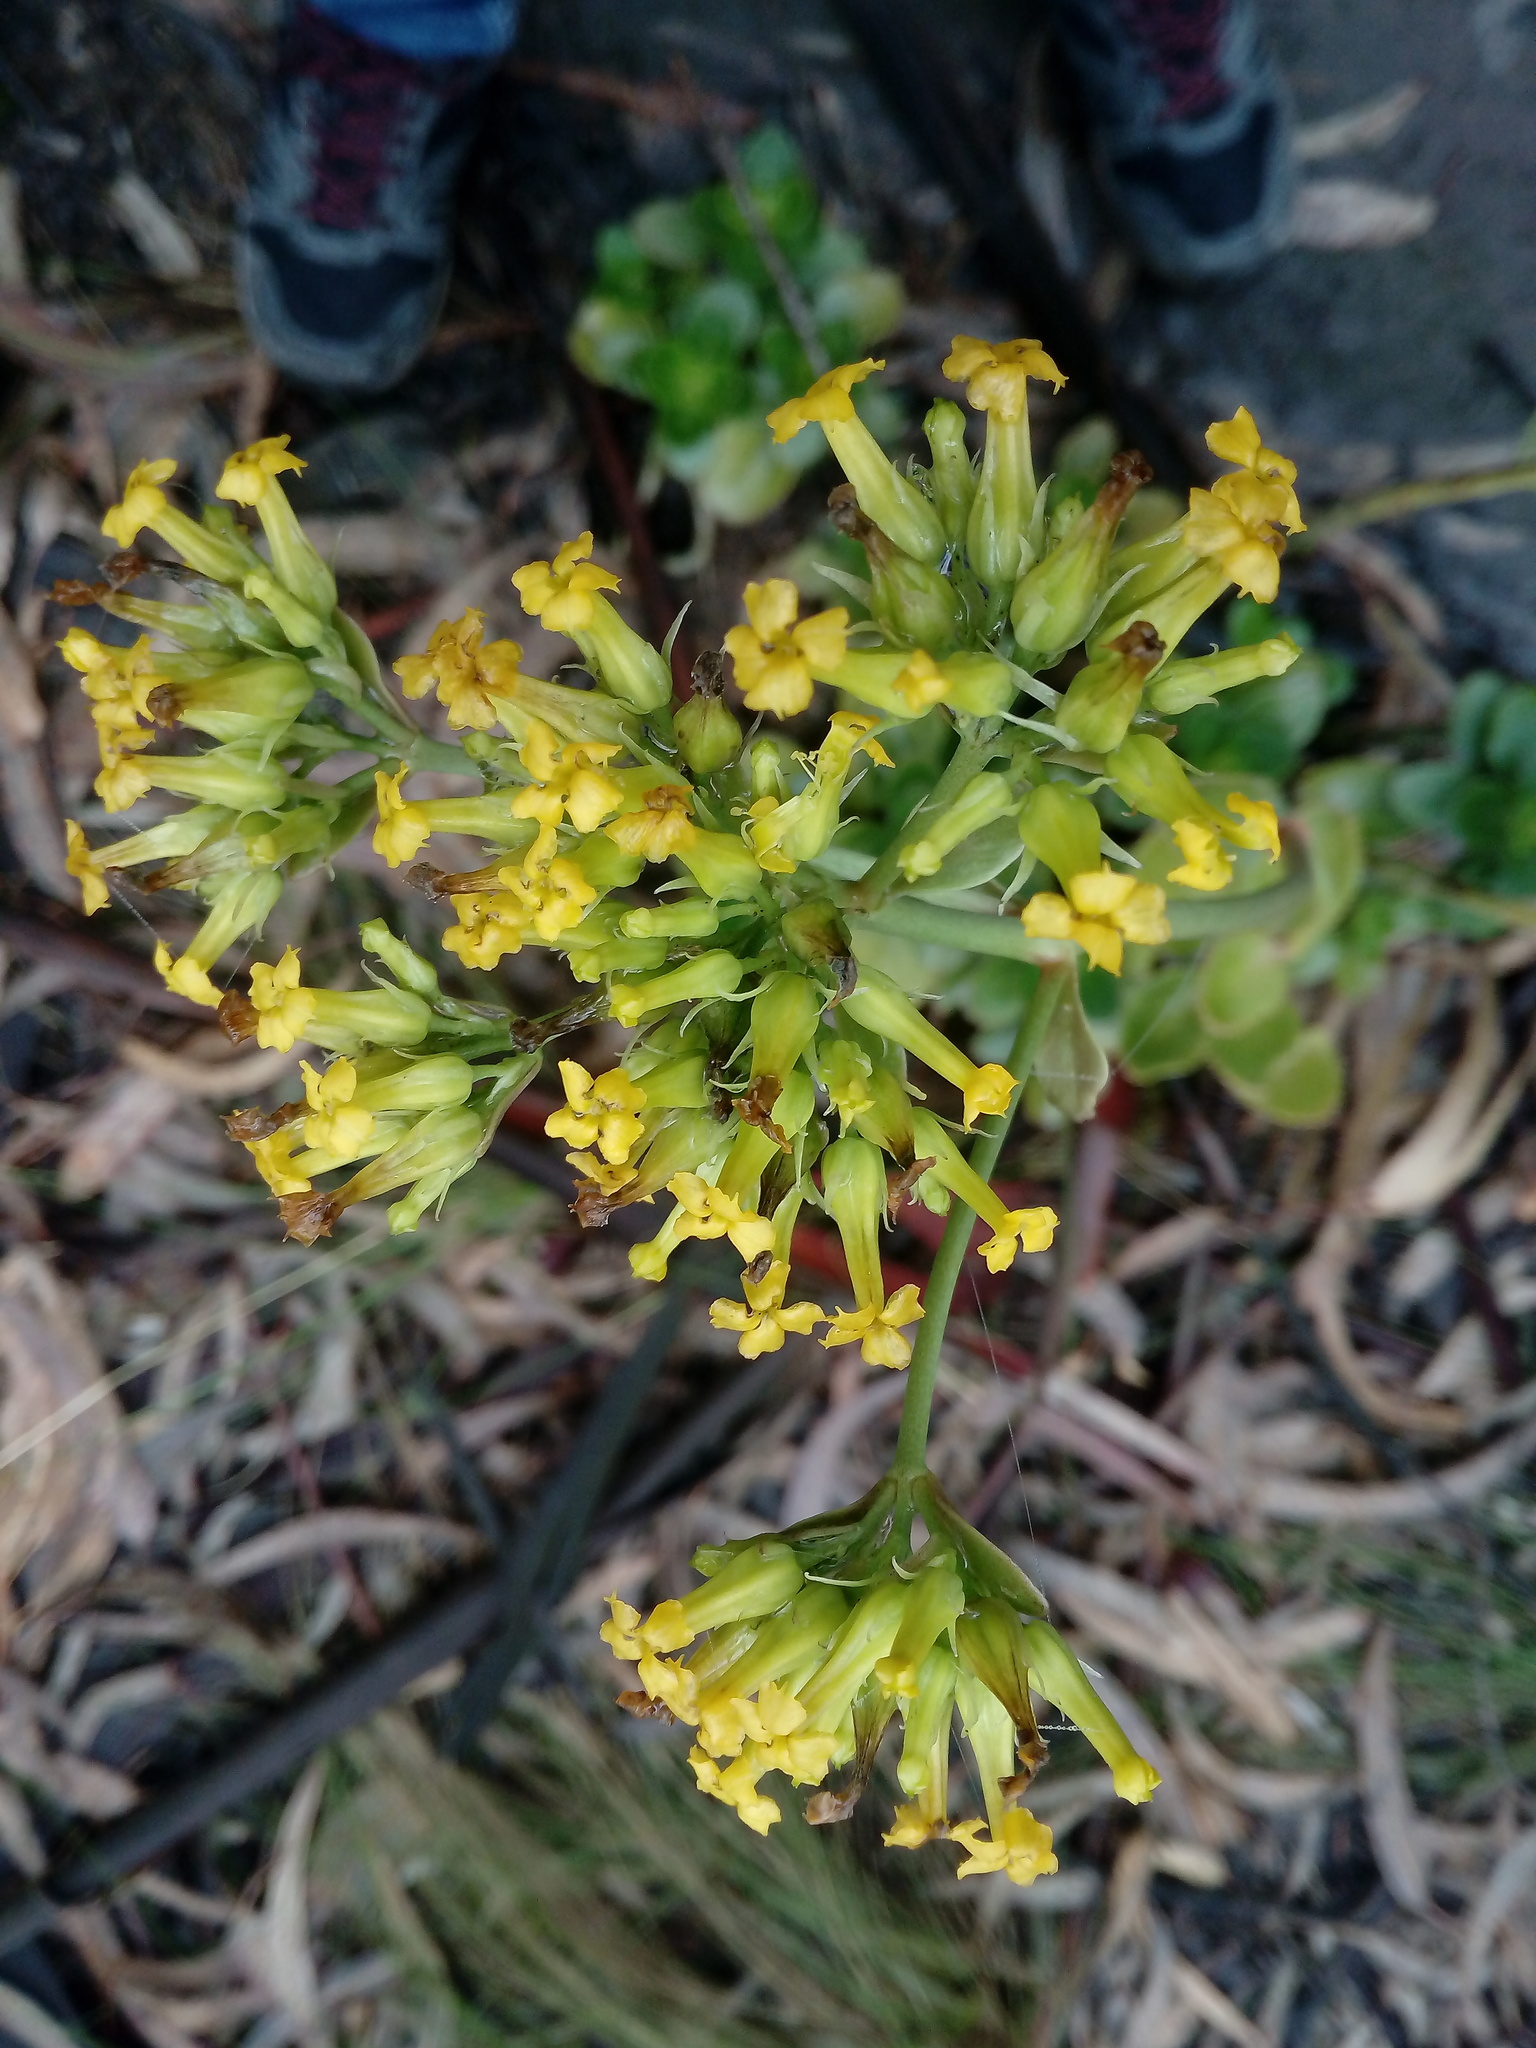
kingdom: Plantae
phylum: Tracheophyta
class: Magnoliopsida
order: Saxifragales
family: Crassulaceae
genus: Kalanchoe
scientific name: Kalanchoe densiflora
